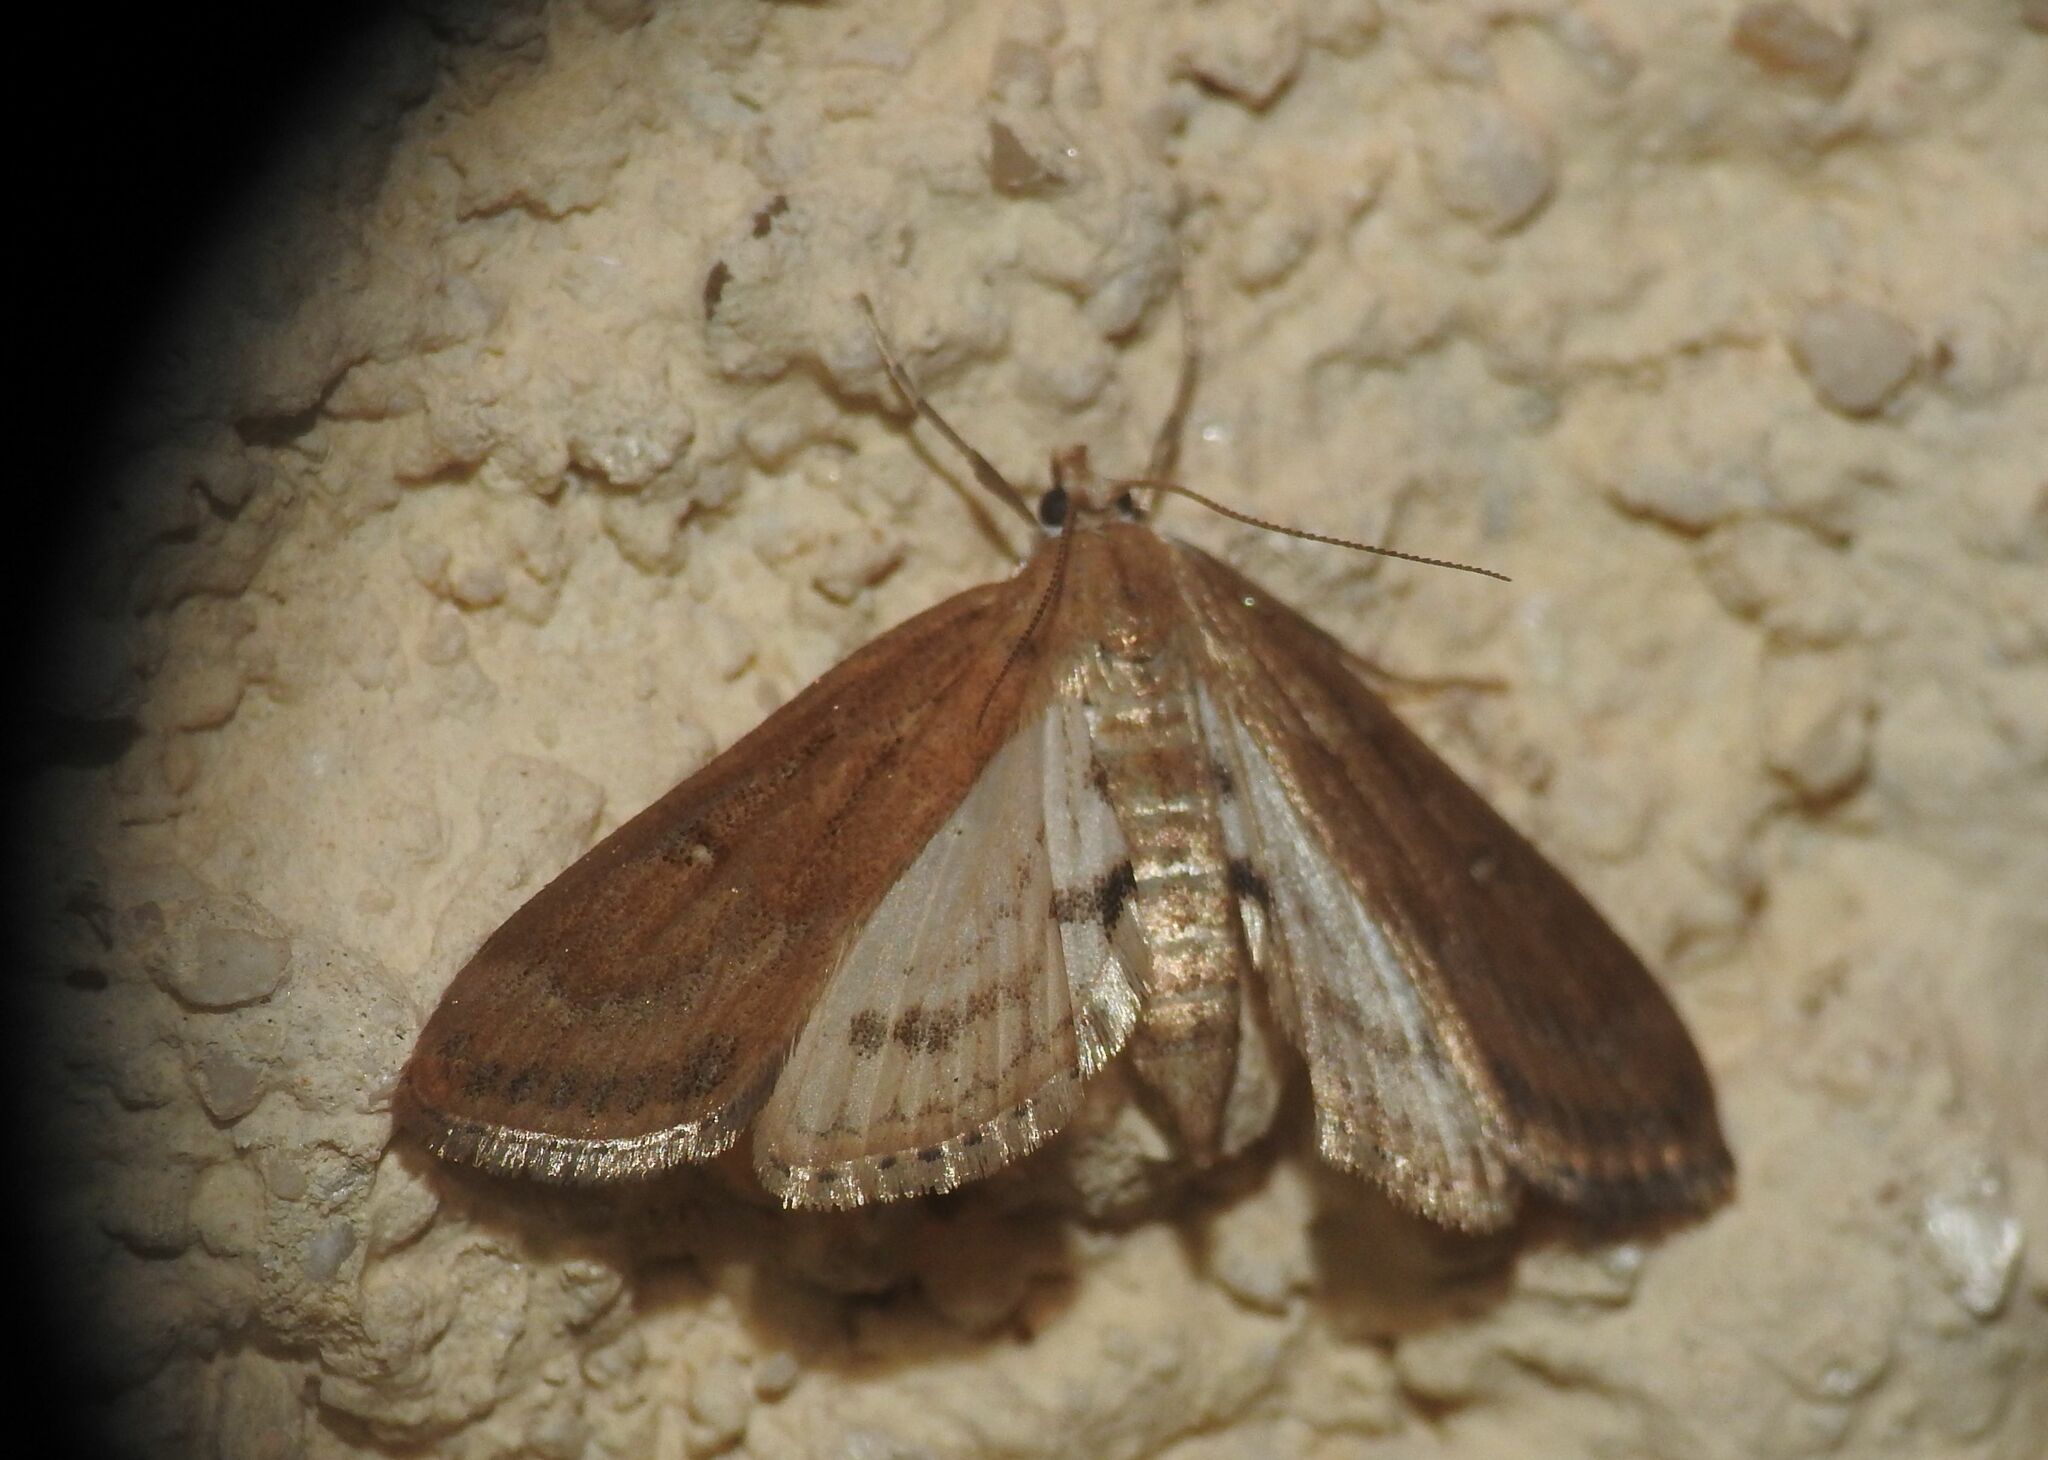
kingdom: Animalia
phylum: Arthropoda
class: Insecta
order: Lepidoptera
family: Crambidae
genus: Parapoynx
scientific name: Parapoynx stratiotata
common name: Ringed china-mark
